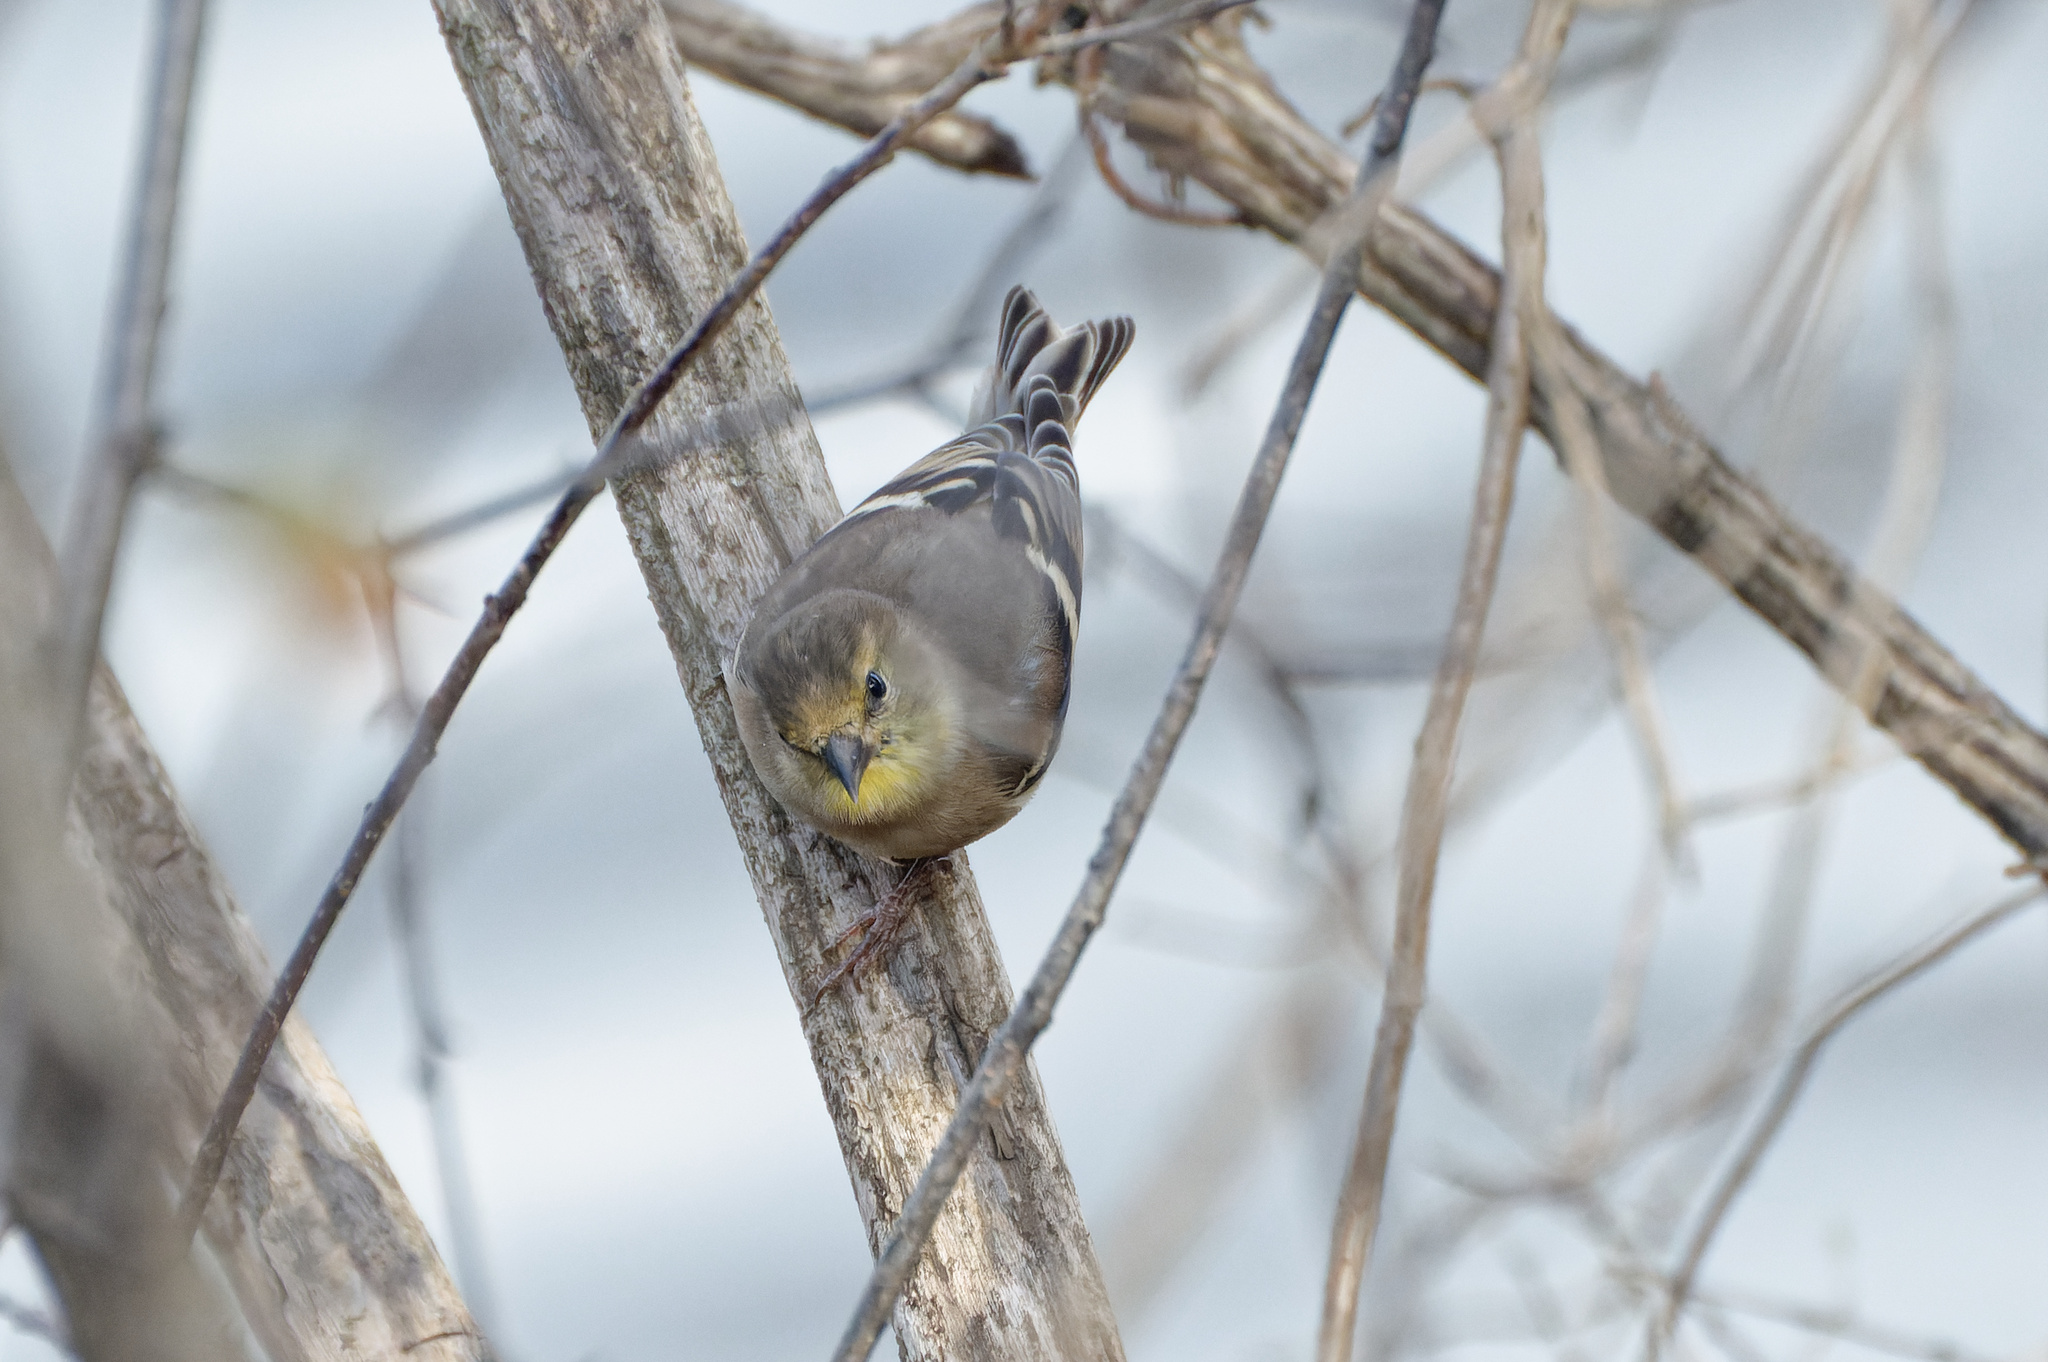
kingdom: Animalia
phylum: Chordata
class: Aves
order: Passeriformes
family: Fringillidae
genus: Spinus
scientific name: Spinus tristis
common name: American goldfinch
